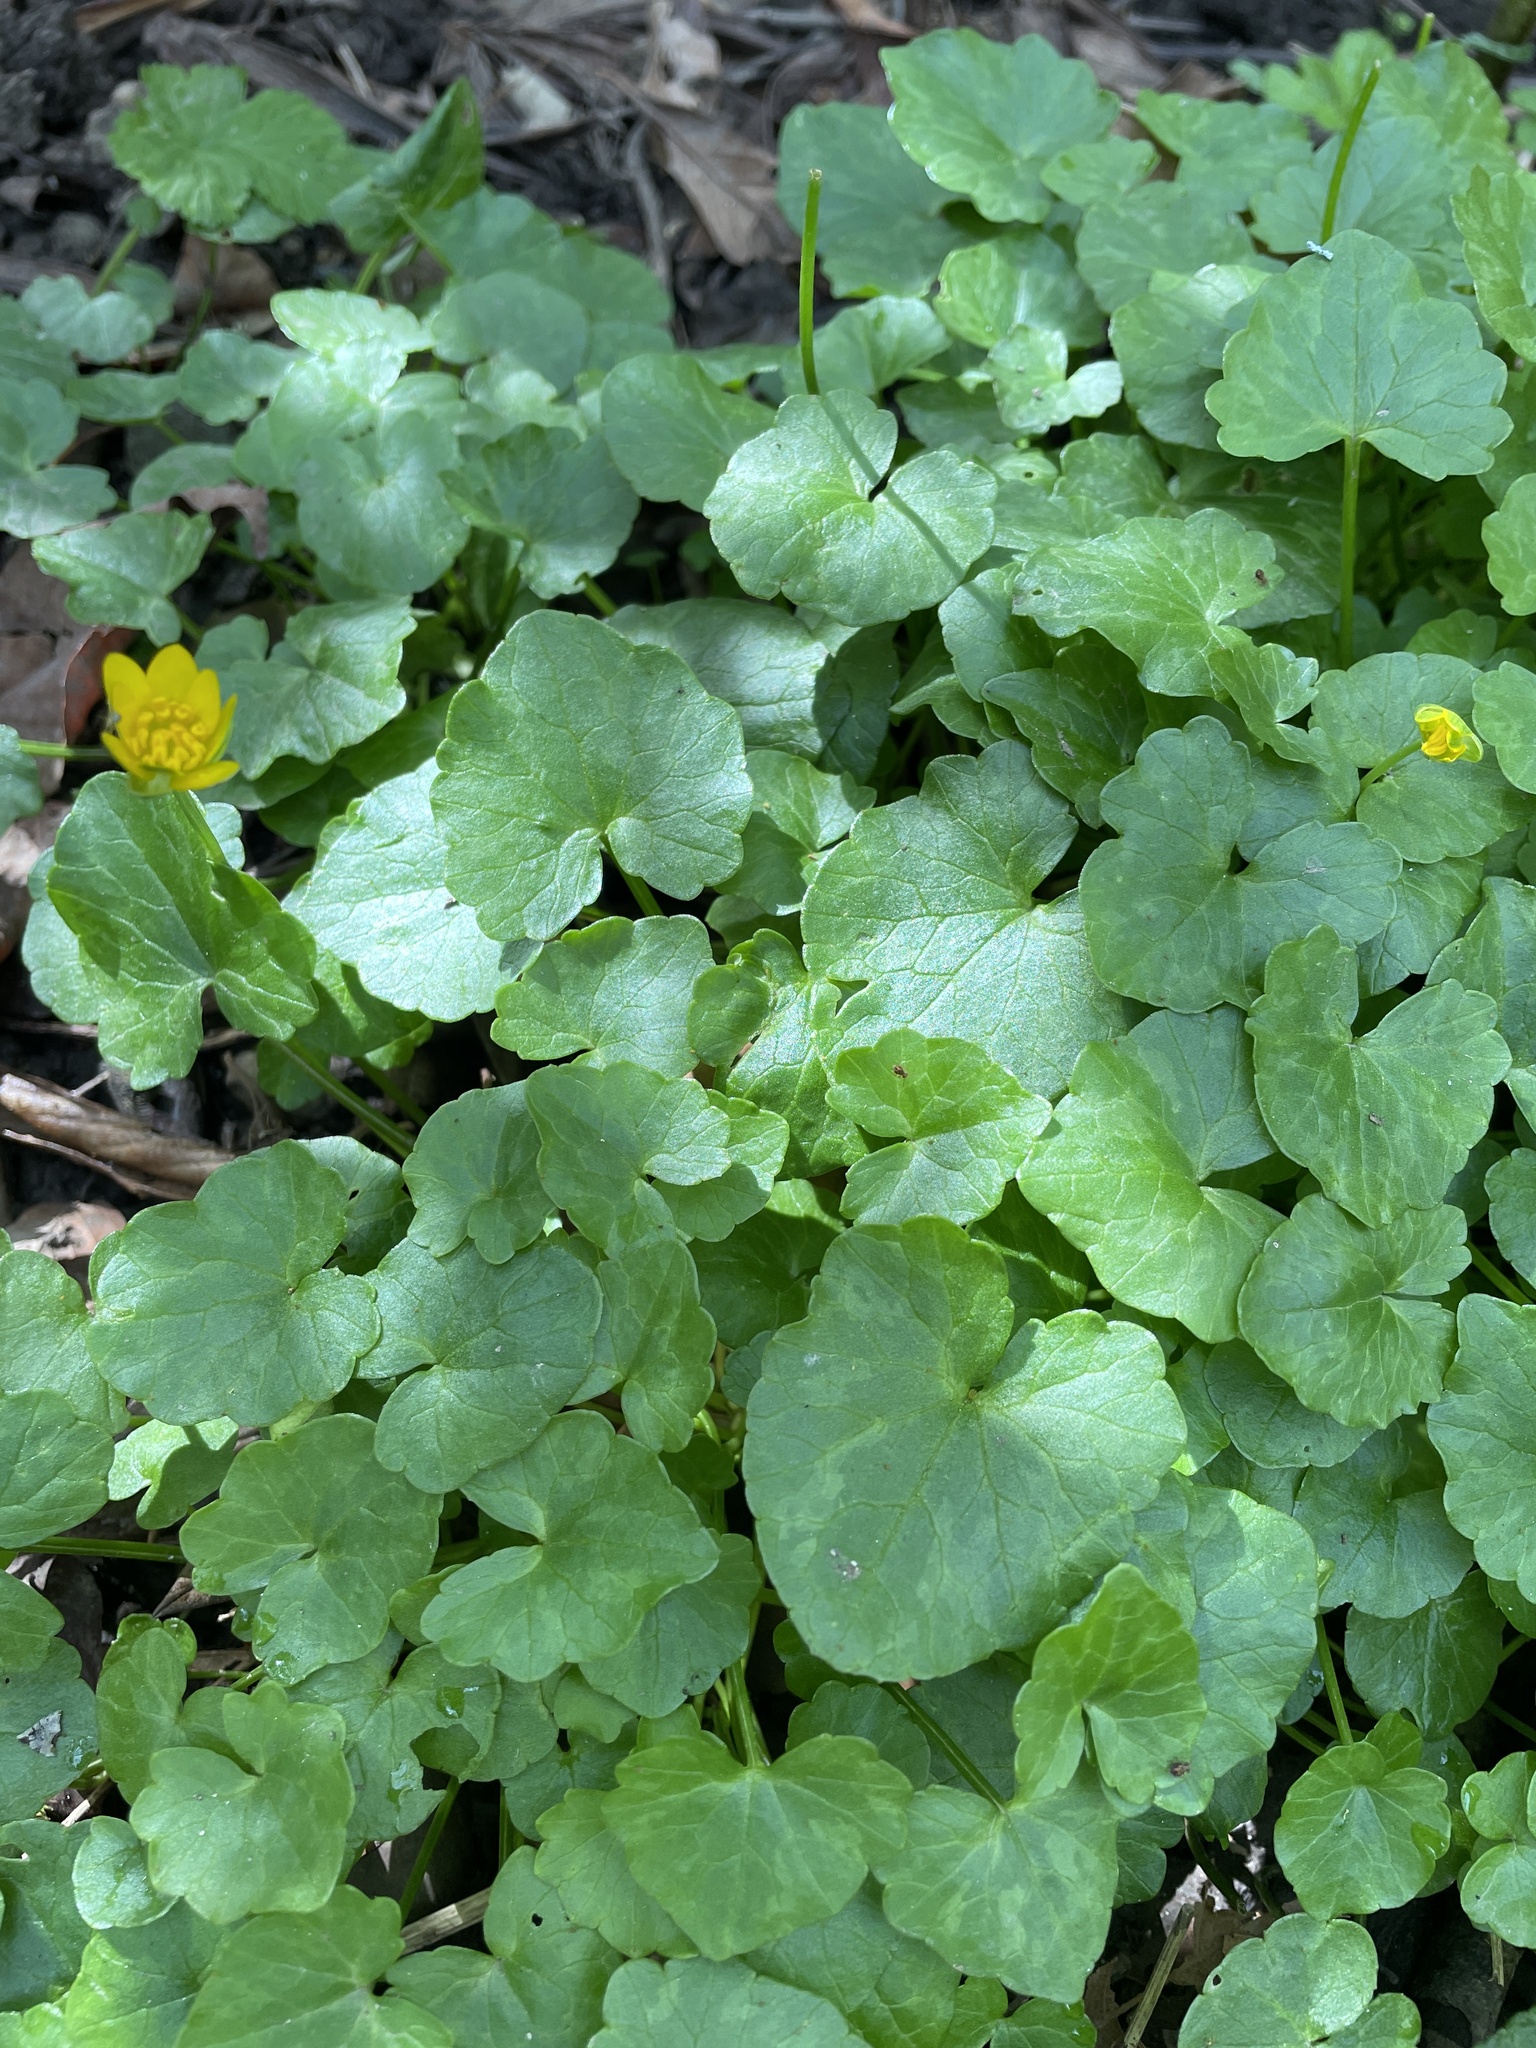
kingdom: Plantae
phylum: Tracheophyta
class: Magnoliopsida
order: Ranunculales
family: Ranunculaceae
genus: Ficaria
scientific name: Ficaria verna
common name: Lesser celandine
